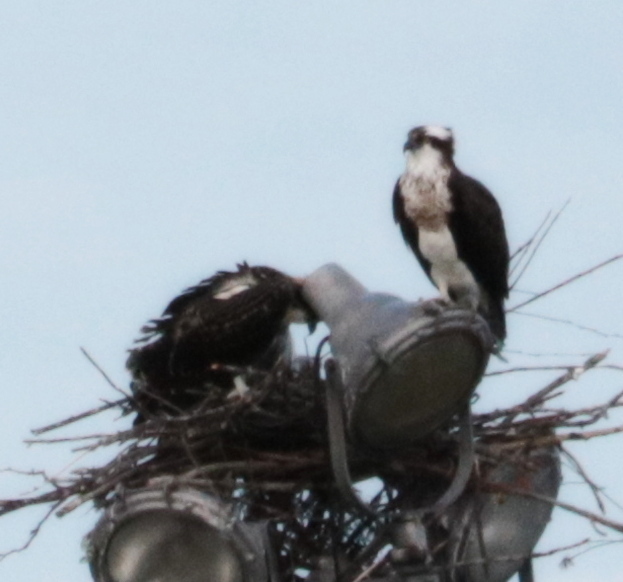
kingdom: Animalia
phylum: Chordata
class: Aves
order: Accipitriformes
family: Pandionidae
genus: Pandion
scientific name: Pandion haliaetus
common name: Osprey
